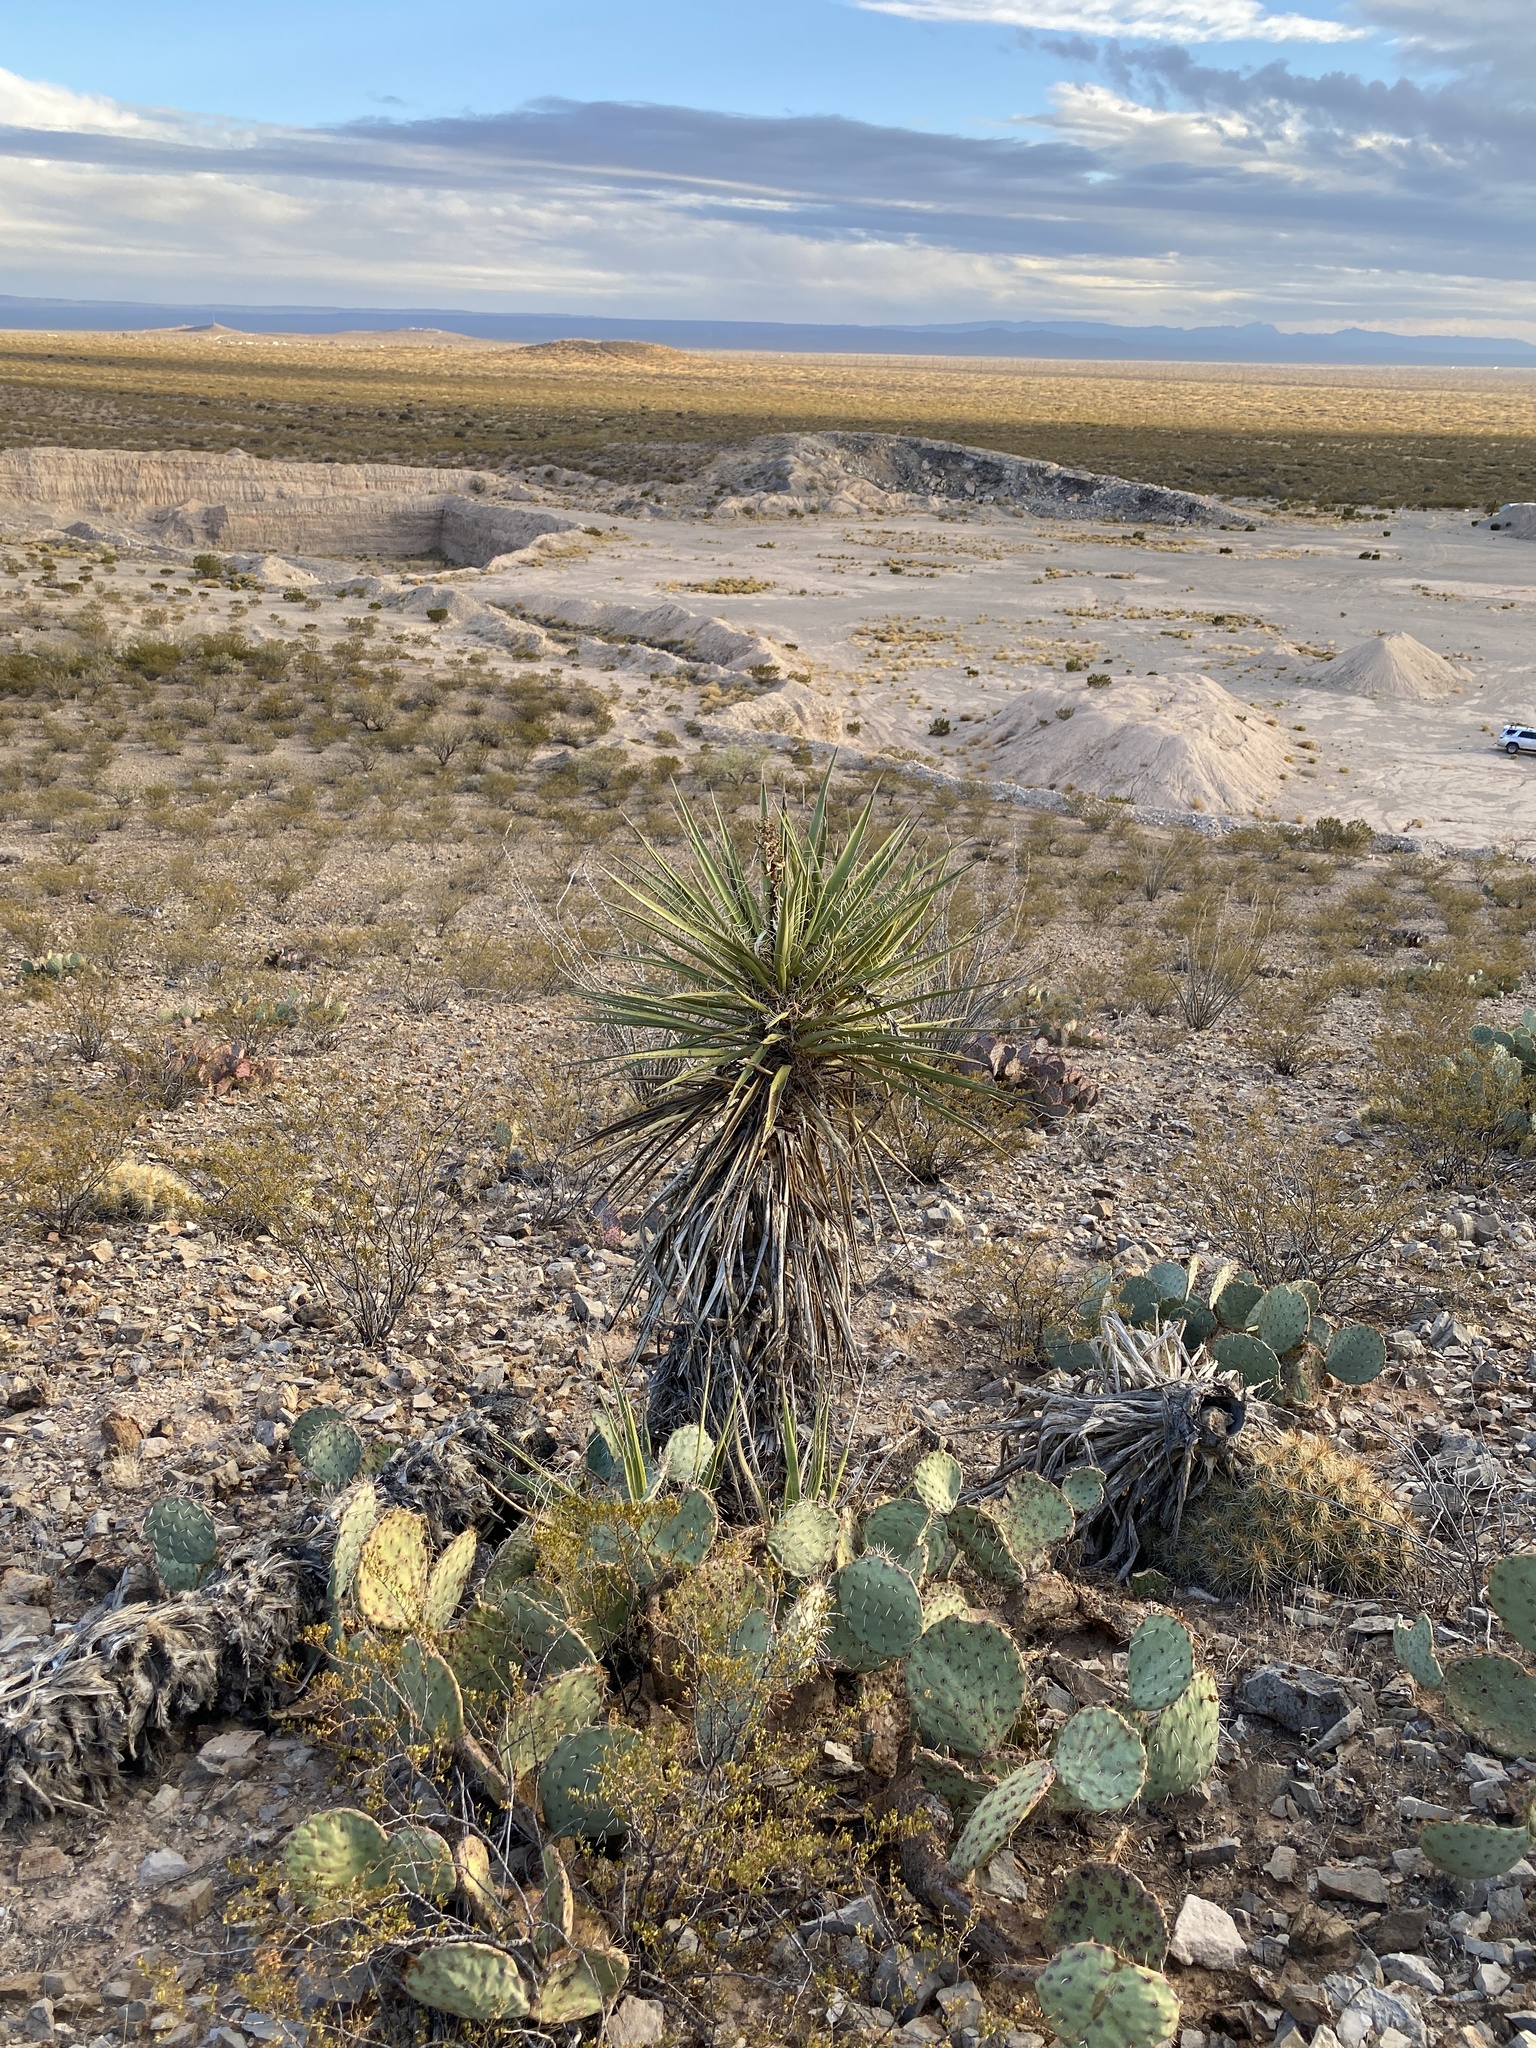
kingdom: Plantae
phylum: Tracheophyta
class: Liliopsida
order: Asparagales
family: Asparagaceae
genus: Yucca
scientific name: Yucca treculiana
